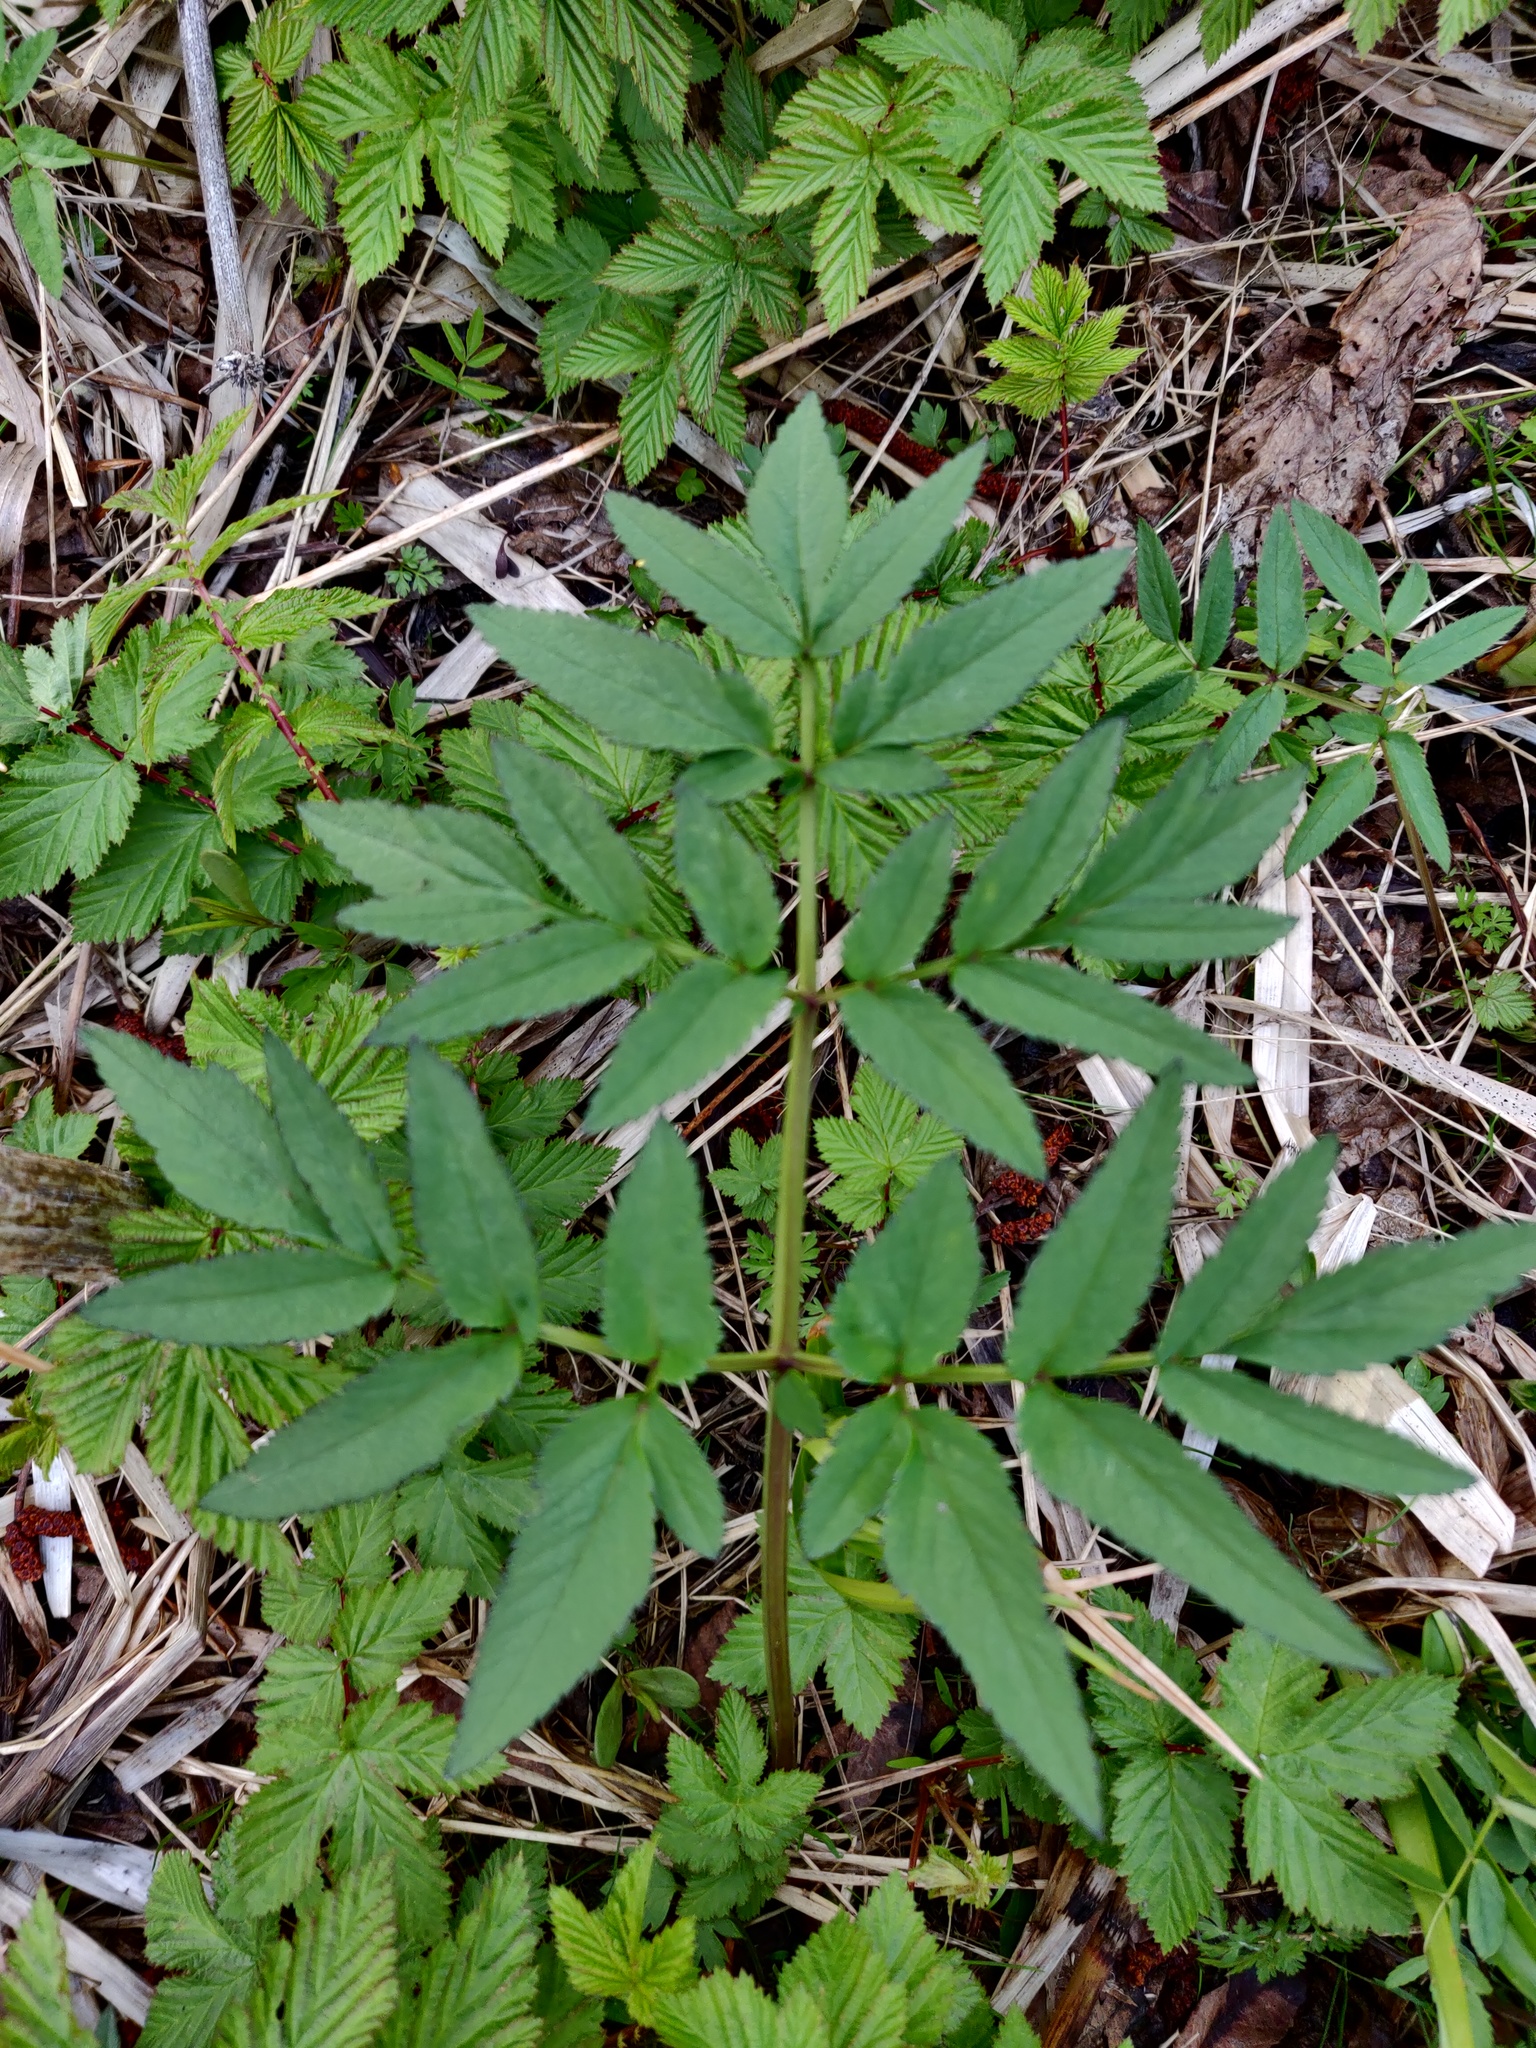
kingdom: Plantae
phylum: Tracheophyta
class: Magnoliopsida
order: Apiales
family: Apiaceae
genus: Angelica
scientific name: Angelica sylvestris
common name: Wild angelica
